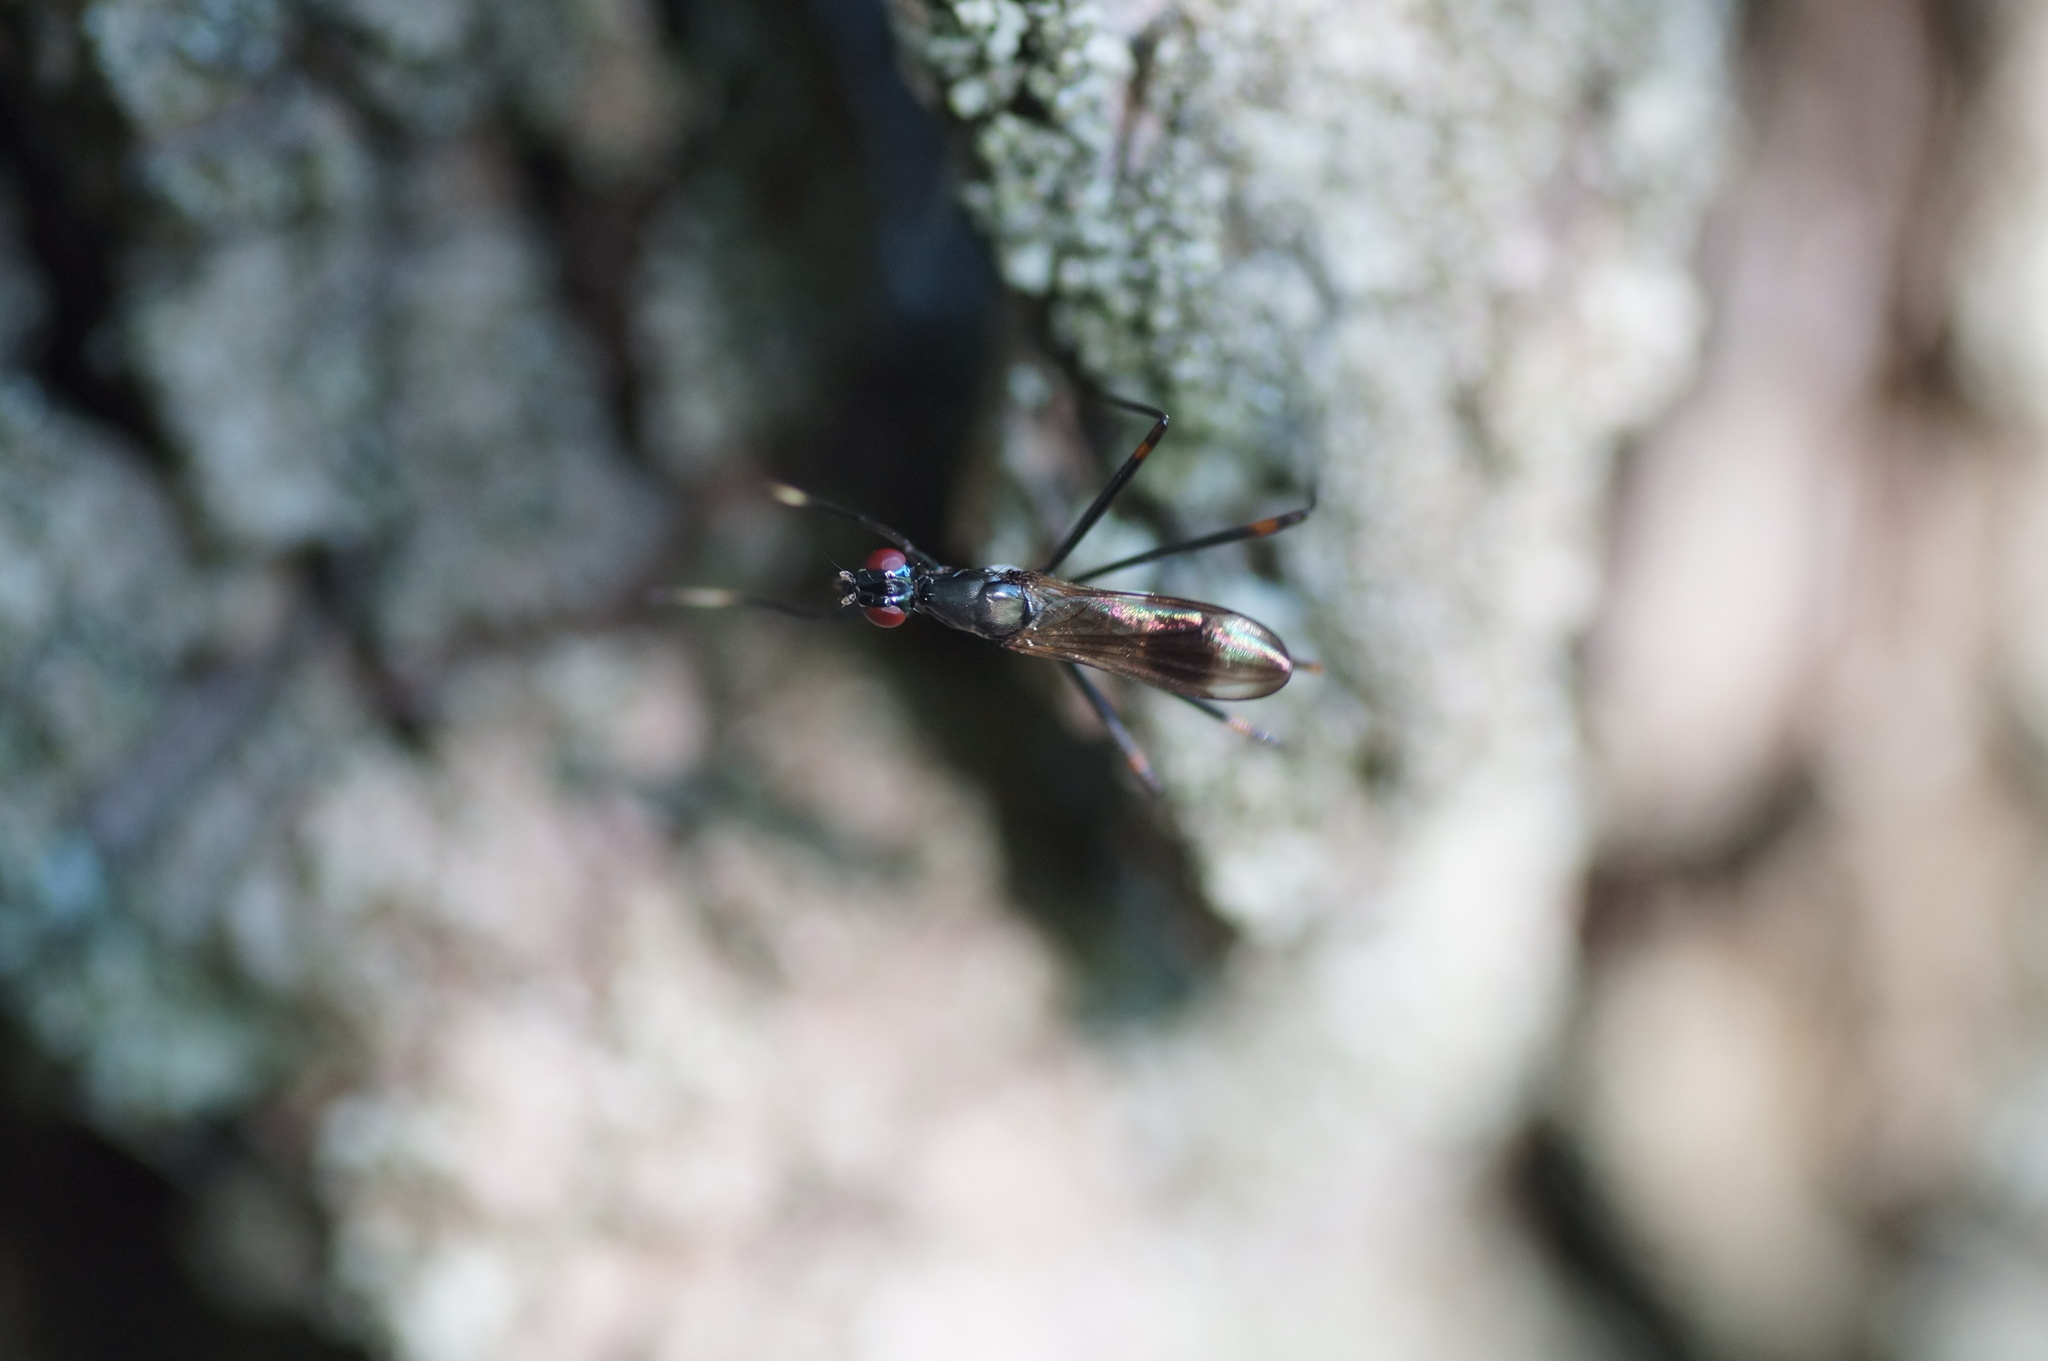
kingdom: Animalia
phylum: Arthropoda
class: Insecta
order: Diptera
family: Micropezidae
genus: Rainieria
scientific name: Rainieria calceata
